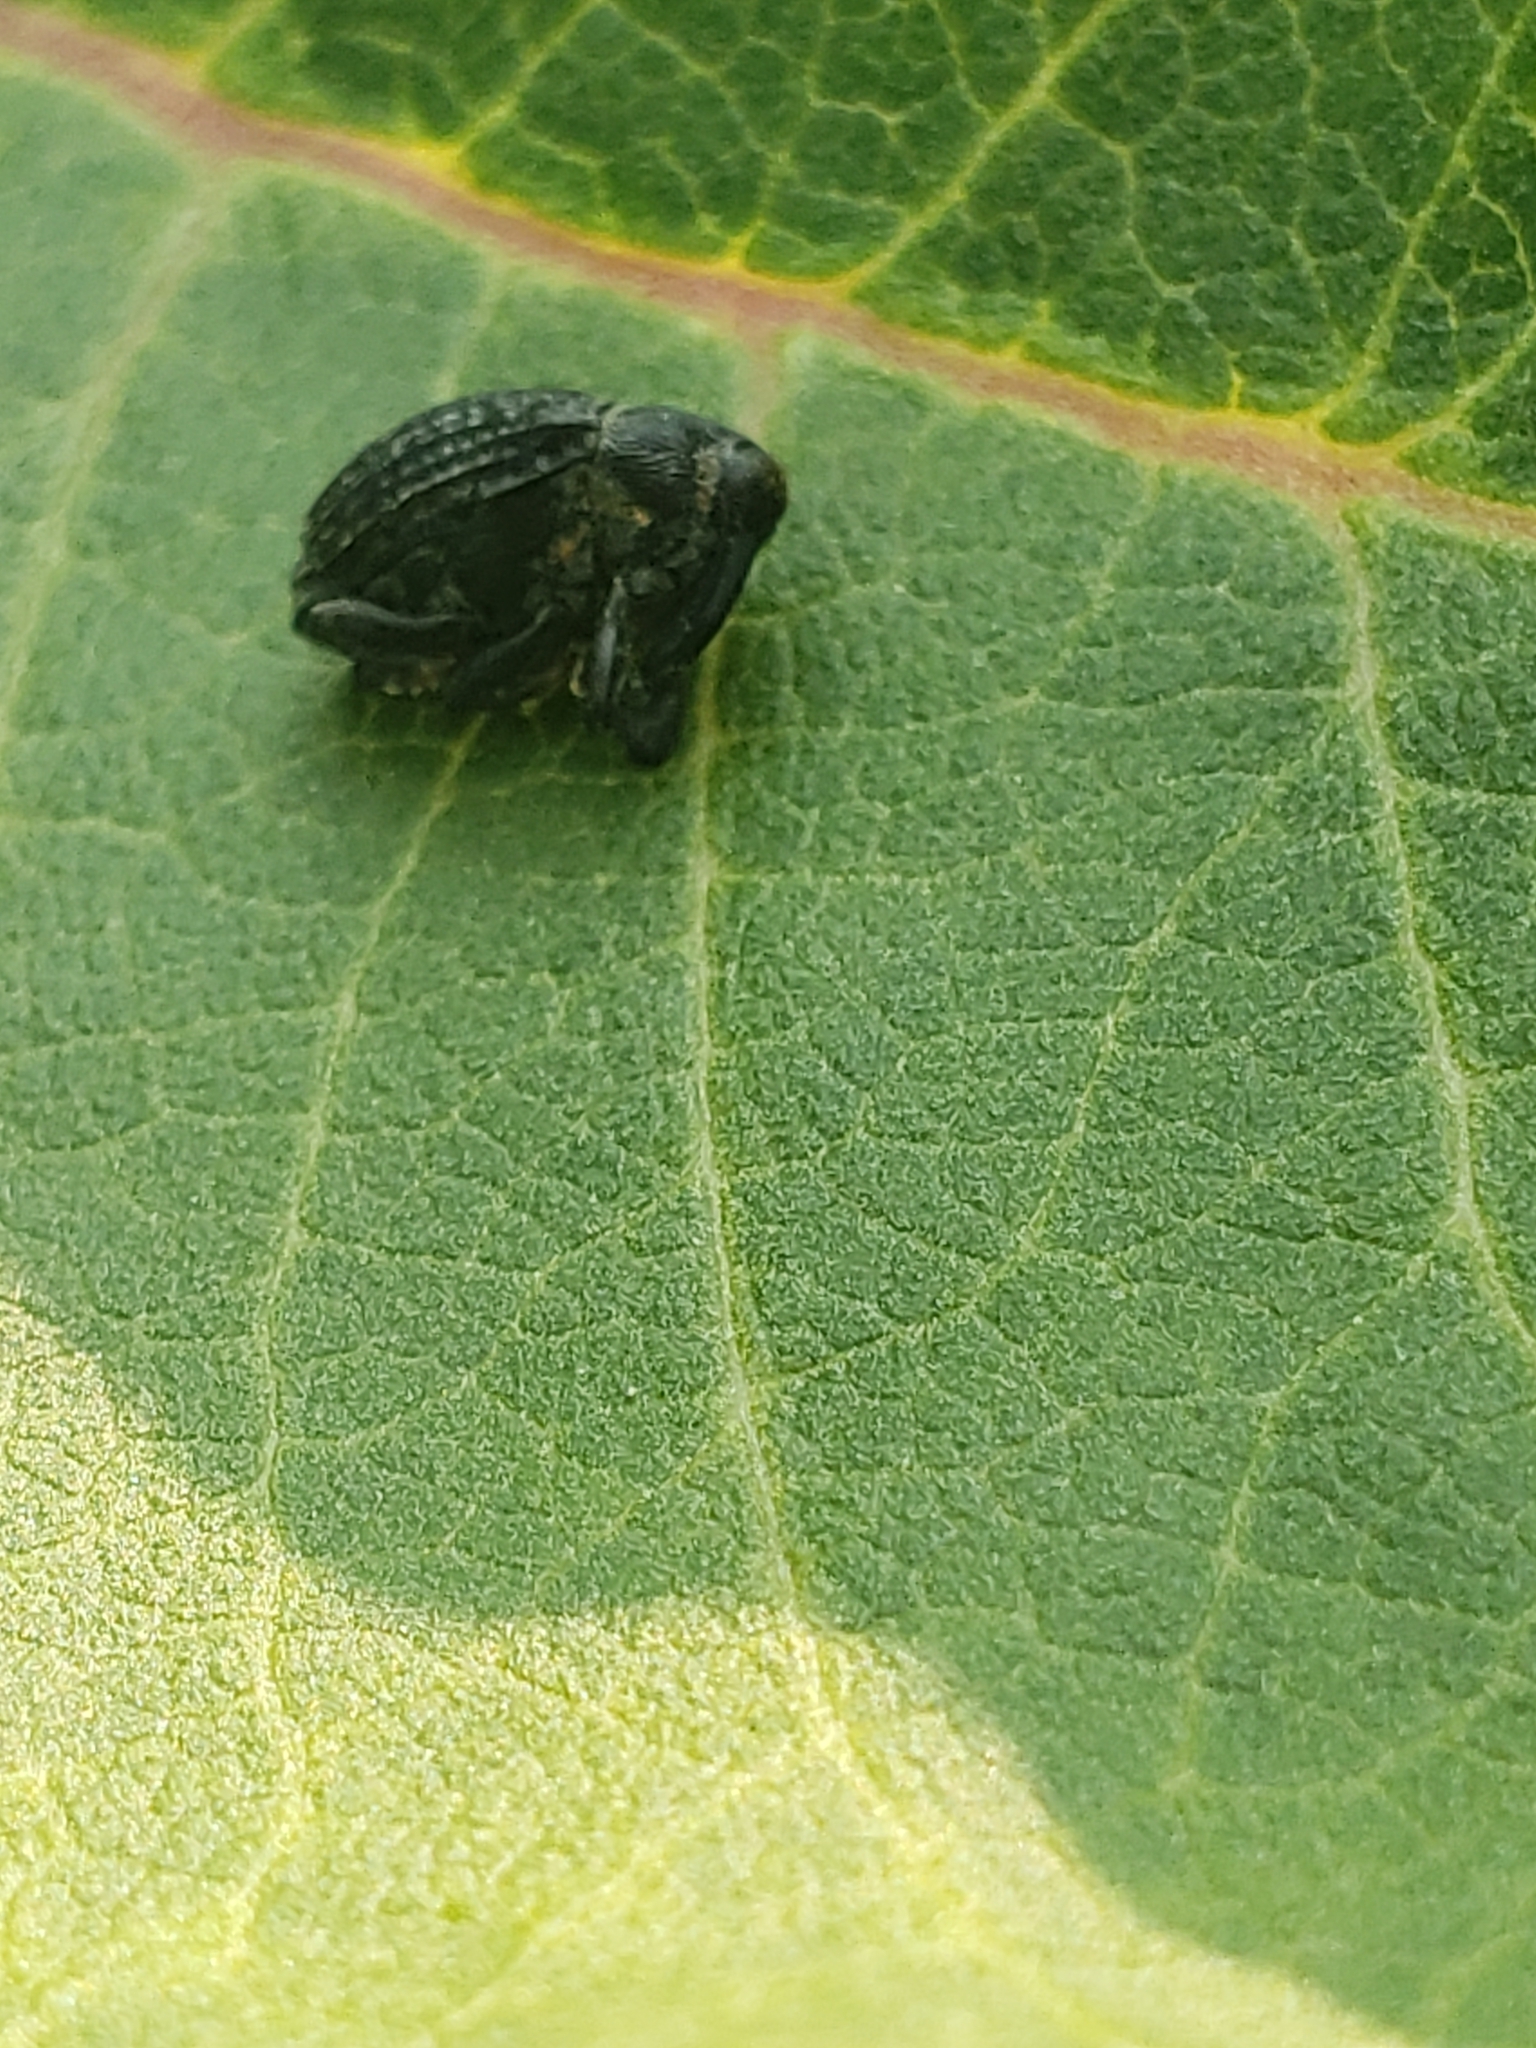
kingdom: Animalia
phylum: Arthropoda
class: Insecta
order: Coleoptera
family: Curculionidae
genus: Rhyssomatus
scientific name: Rhyssomatus lineaticollis
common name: Milkweed stem weevil
